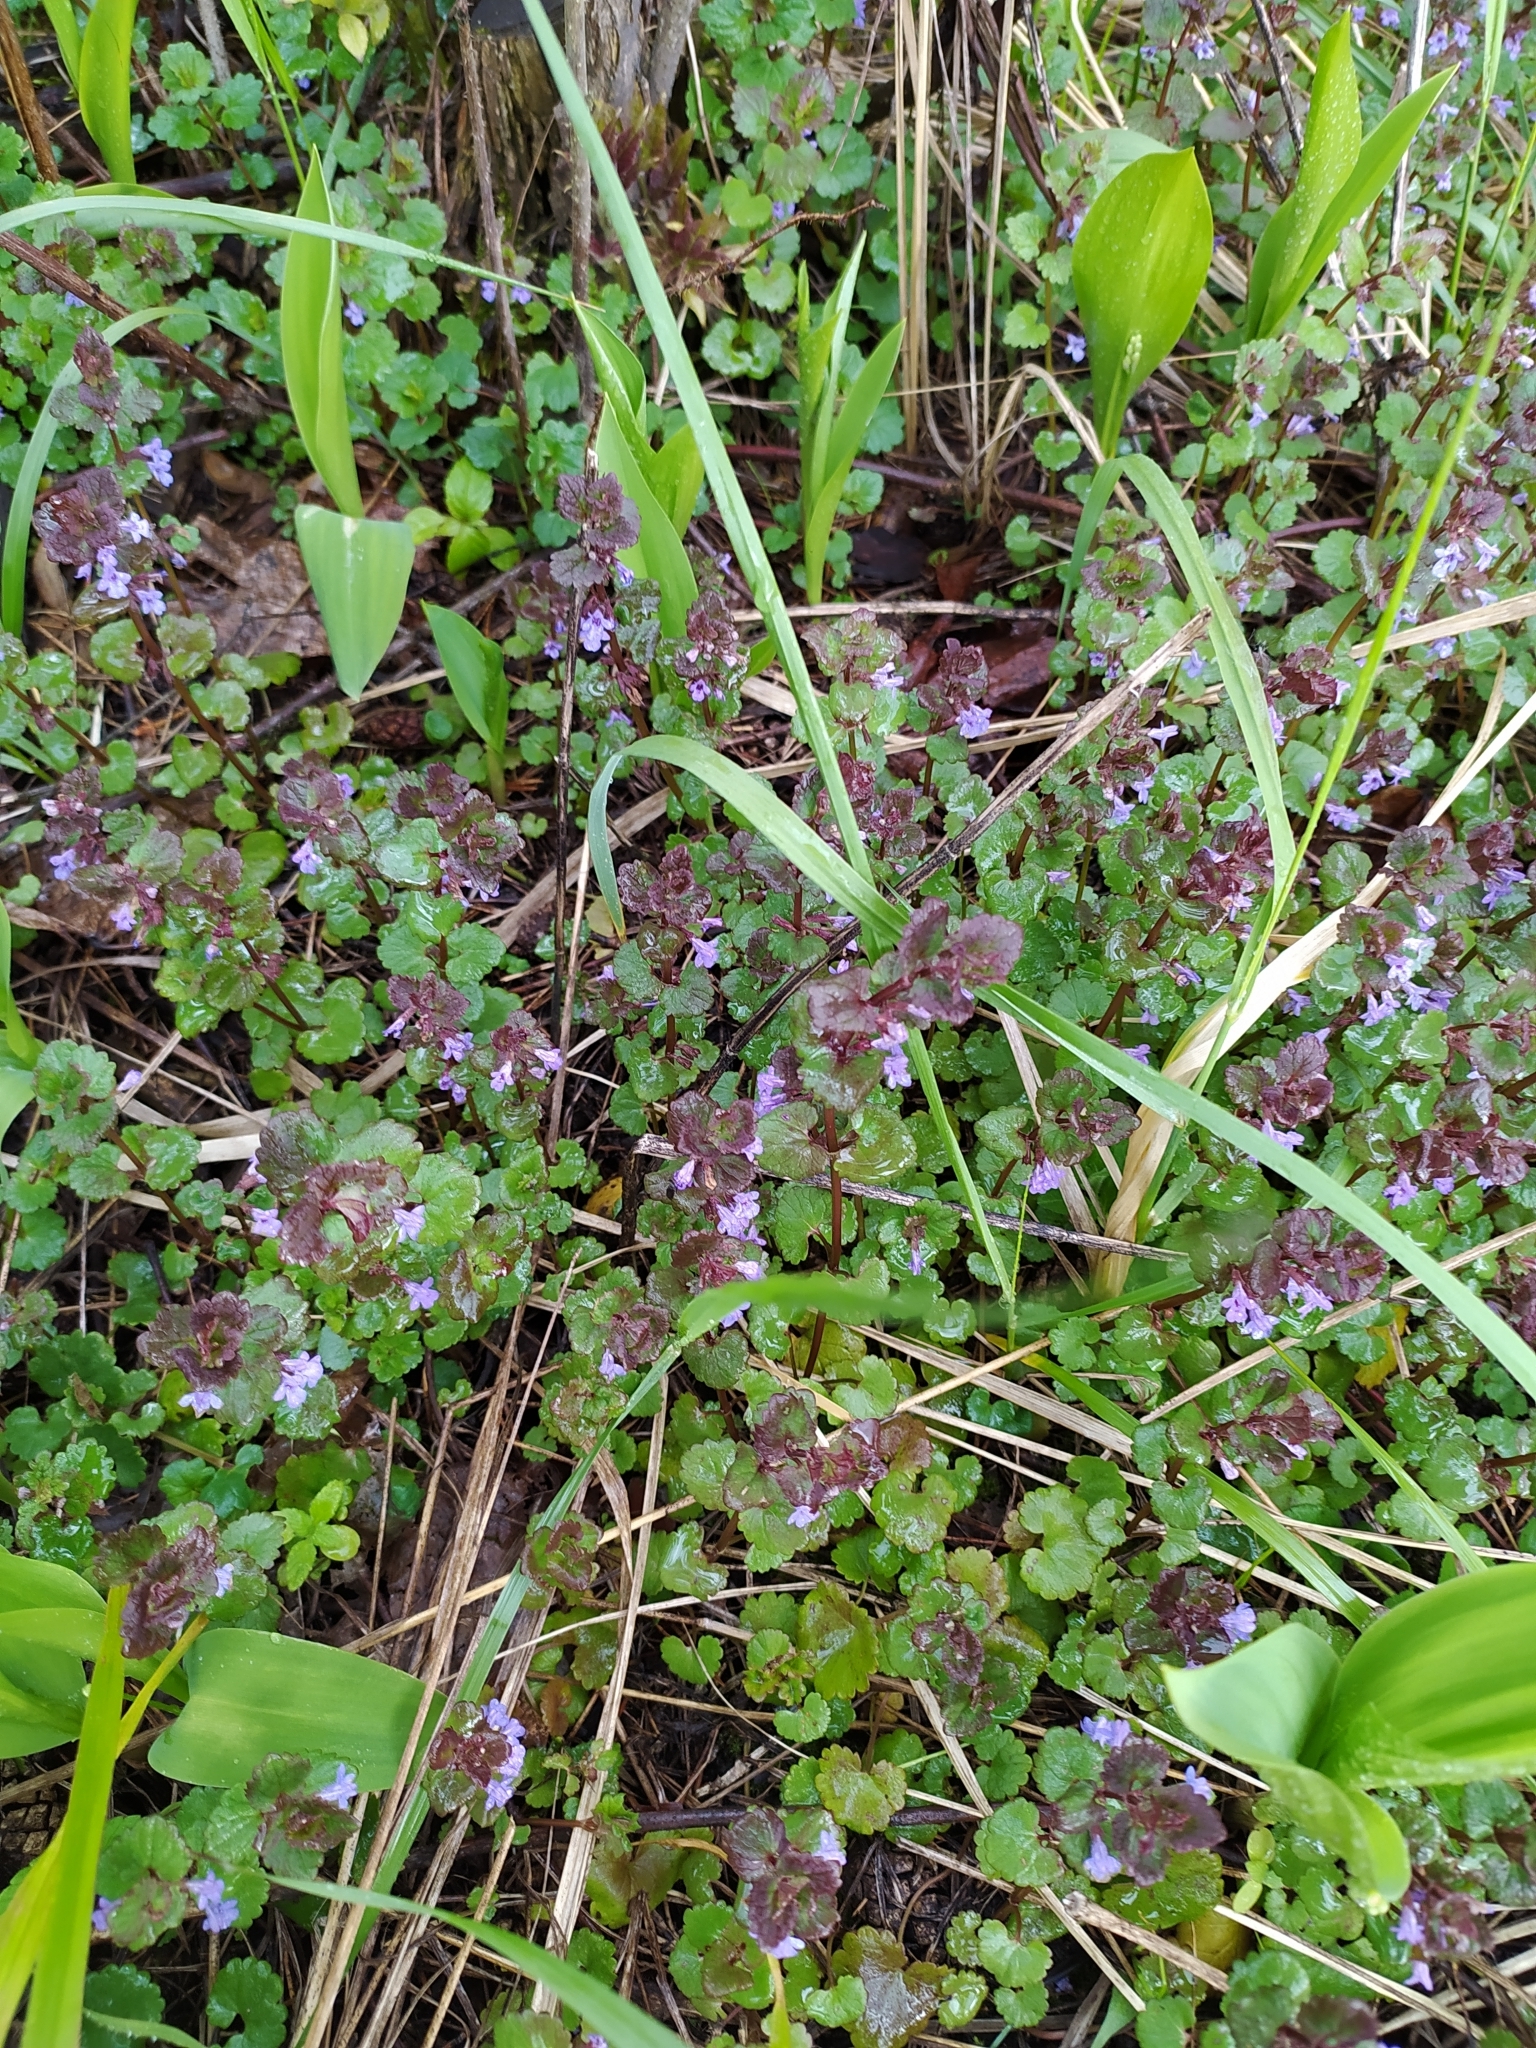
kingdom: Plantae
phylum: Tracheophyta
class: Magnoliopsida
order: Lamiales
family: Lamiaceae
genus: Glechoma
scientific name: Glechoma hederacea
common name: Ground ivy
